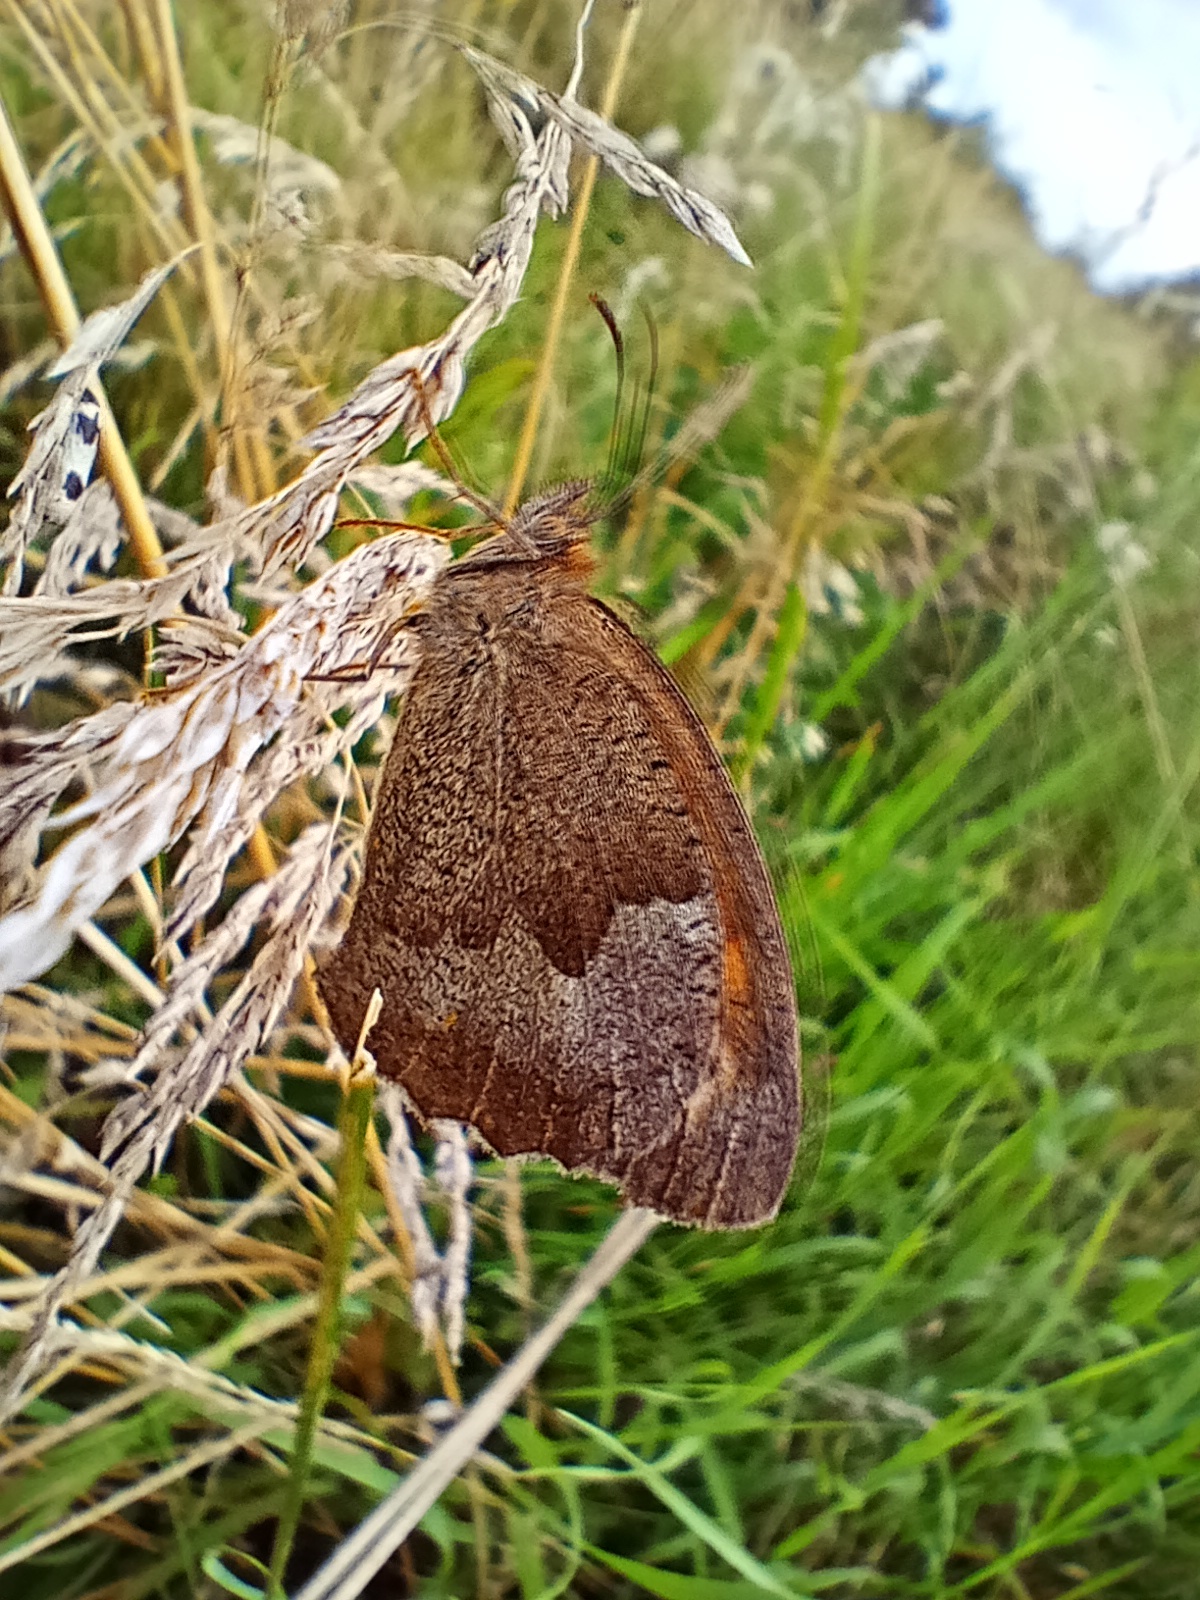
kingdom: Animalia
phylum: Arthropoda
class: Insecta
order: Lepidoptera
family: Nymphalidae
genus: Maniola
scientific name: Maniola jurtina
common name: Meadow brown
